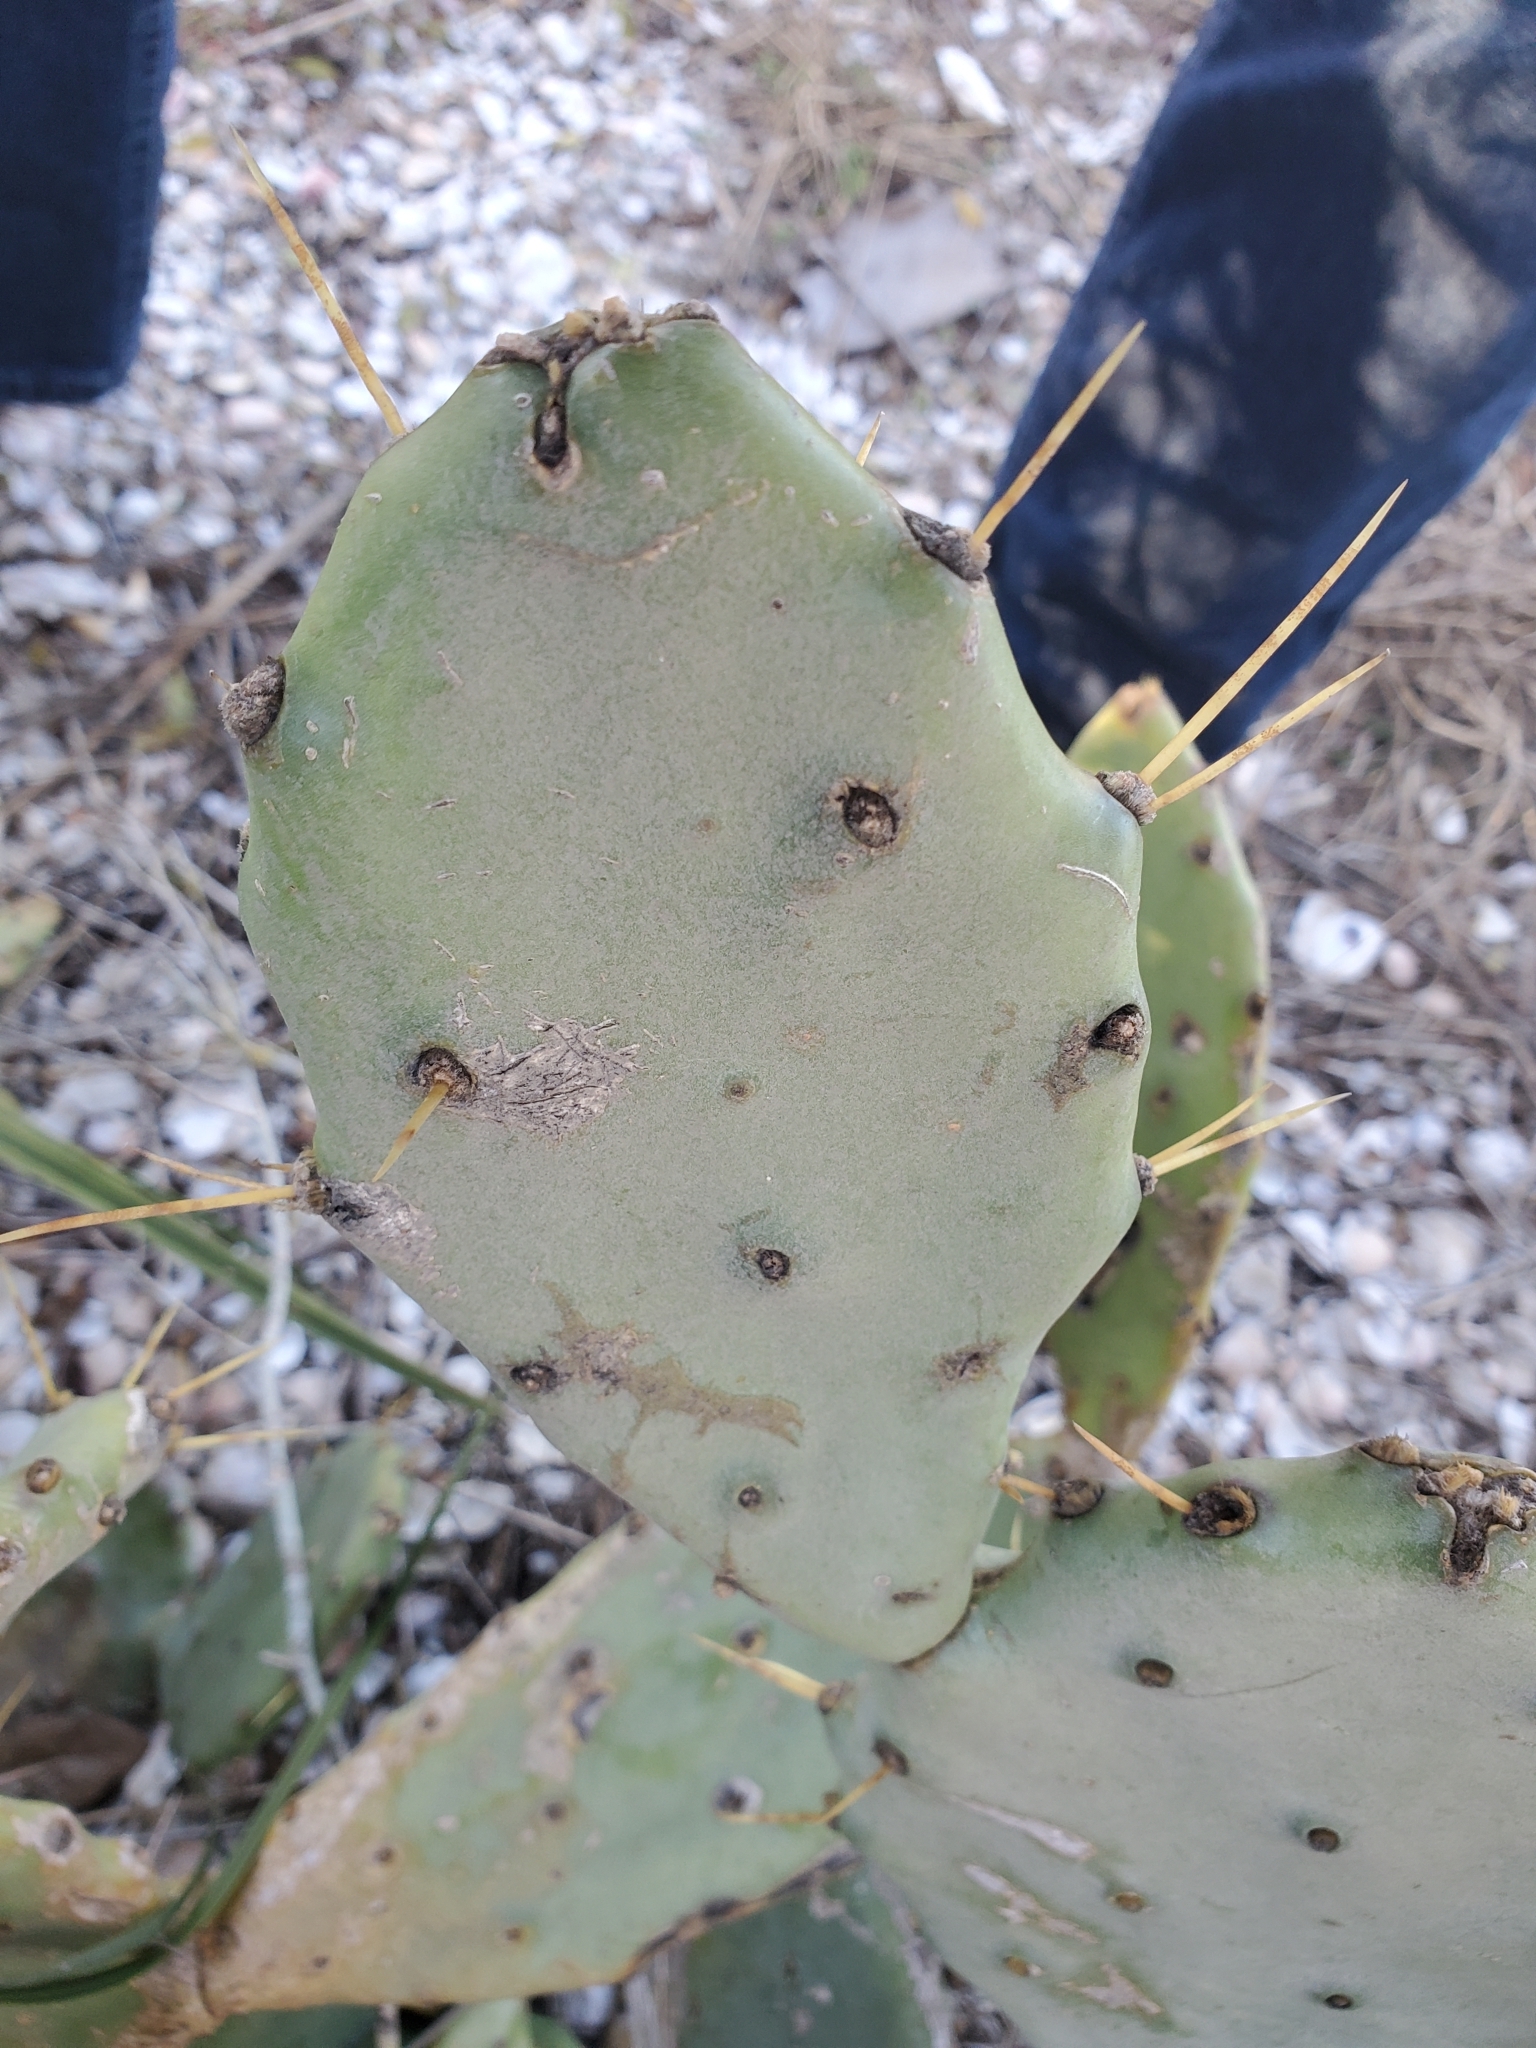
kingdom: Plantae
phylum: Tracheophyta
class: Magnoliopsida
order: Caryophyllales
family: Cactaceae
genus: Opuntia
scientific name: Opuntia stricta
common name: Erect pricklypear
